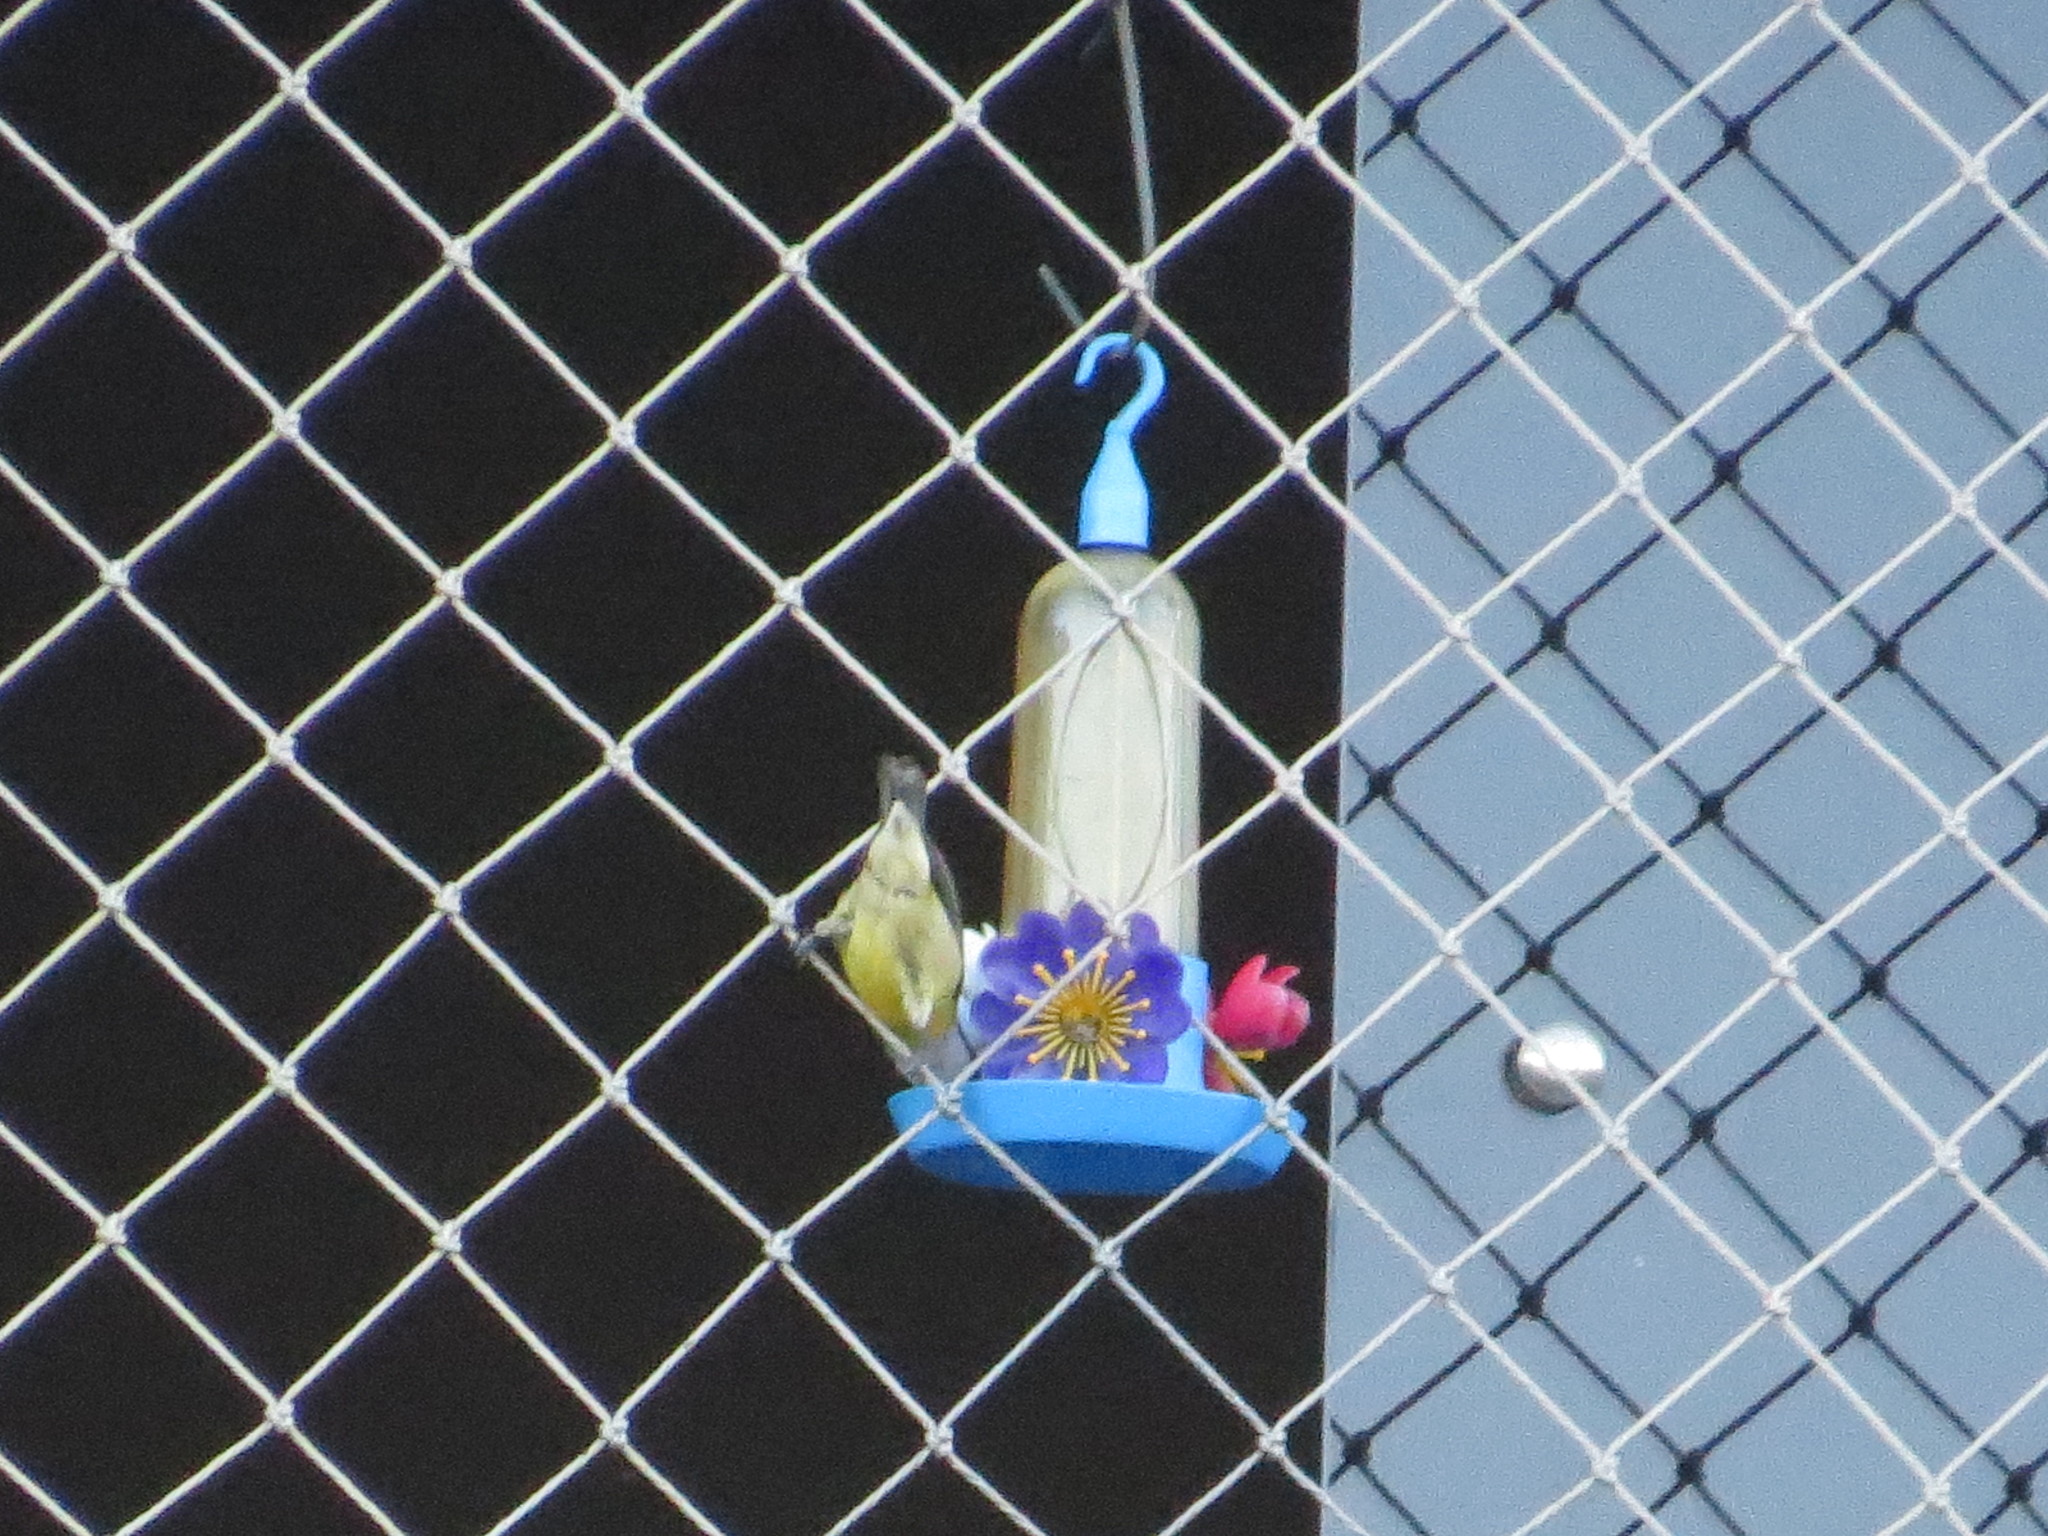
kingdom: Animalia
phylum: Chordata
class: Aves
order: Passeriformes
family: Thraupidae
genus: Coereba
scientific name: Coereba flaveola
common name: Bananaquit
